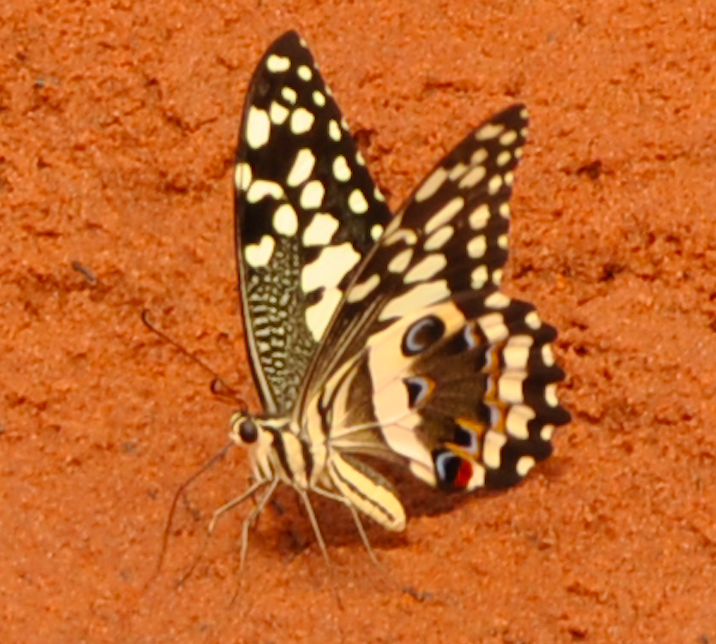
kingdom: Animalia
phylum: Arthropoda
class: Insecta
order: Lepidoptera
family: Papilionidae
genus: Papilio
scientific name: Papilio demodocus
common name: Christmas butterfly
